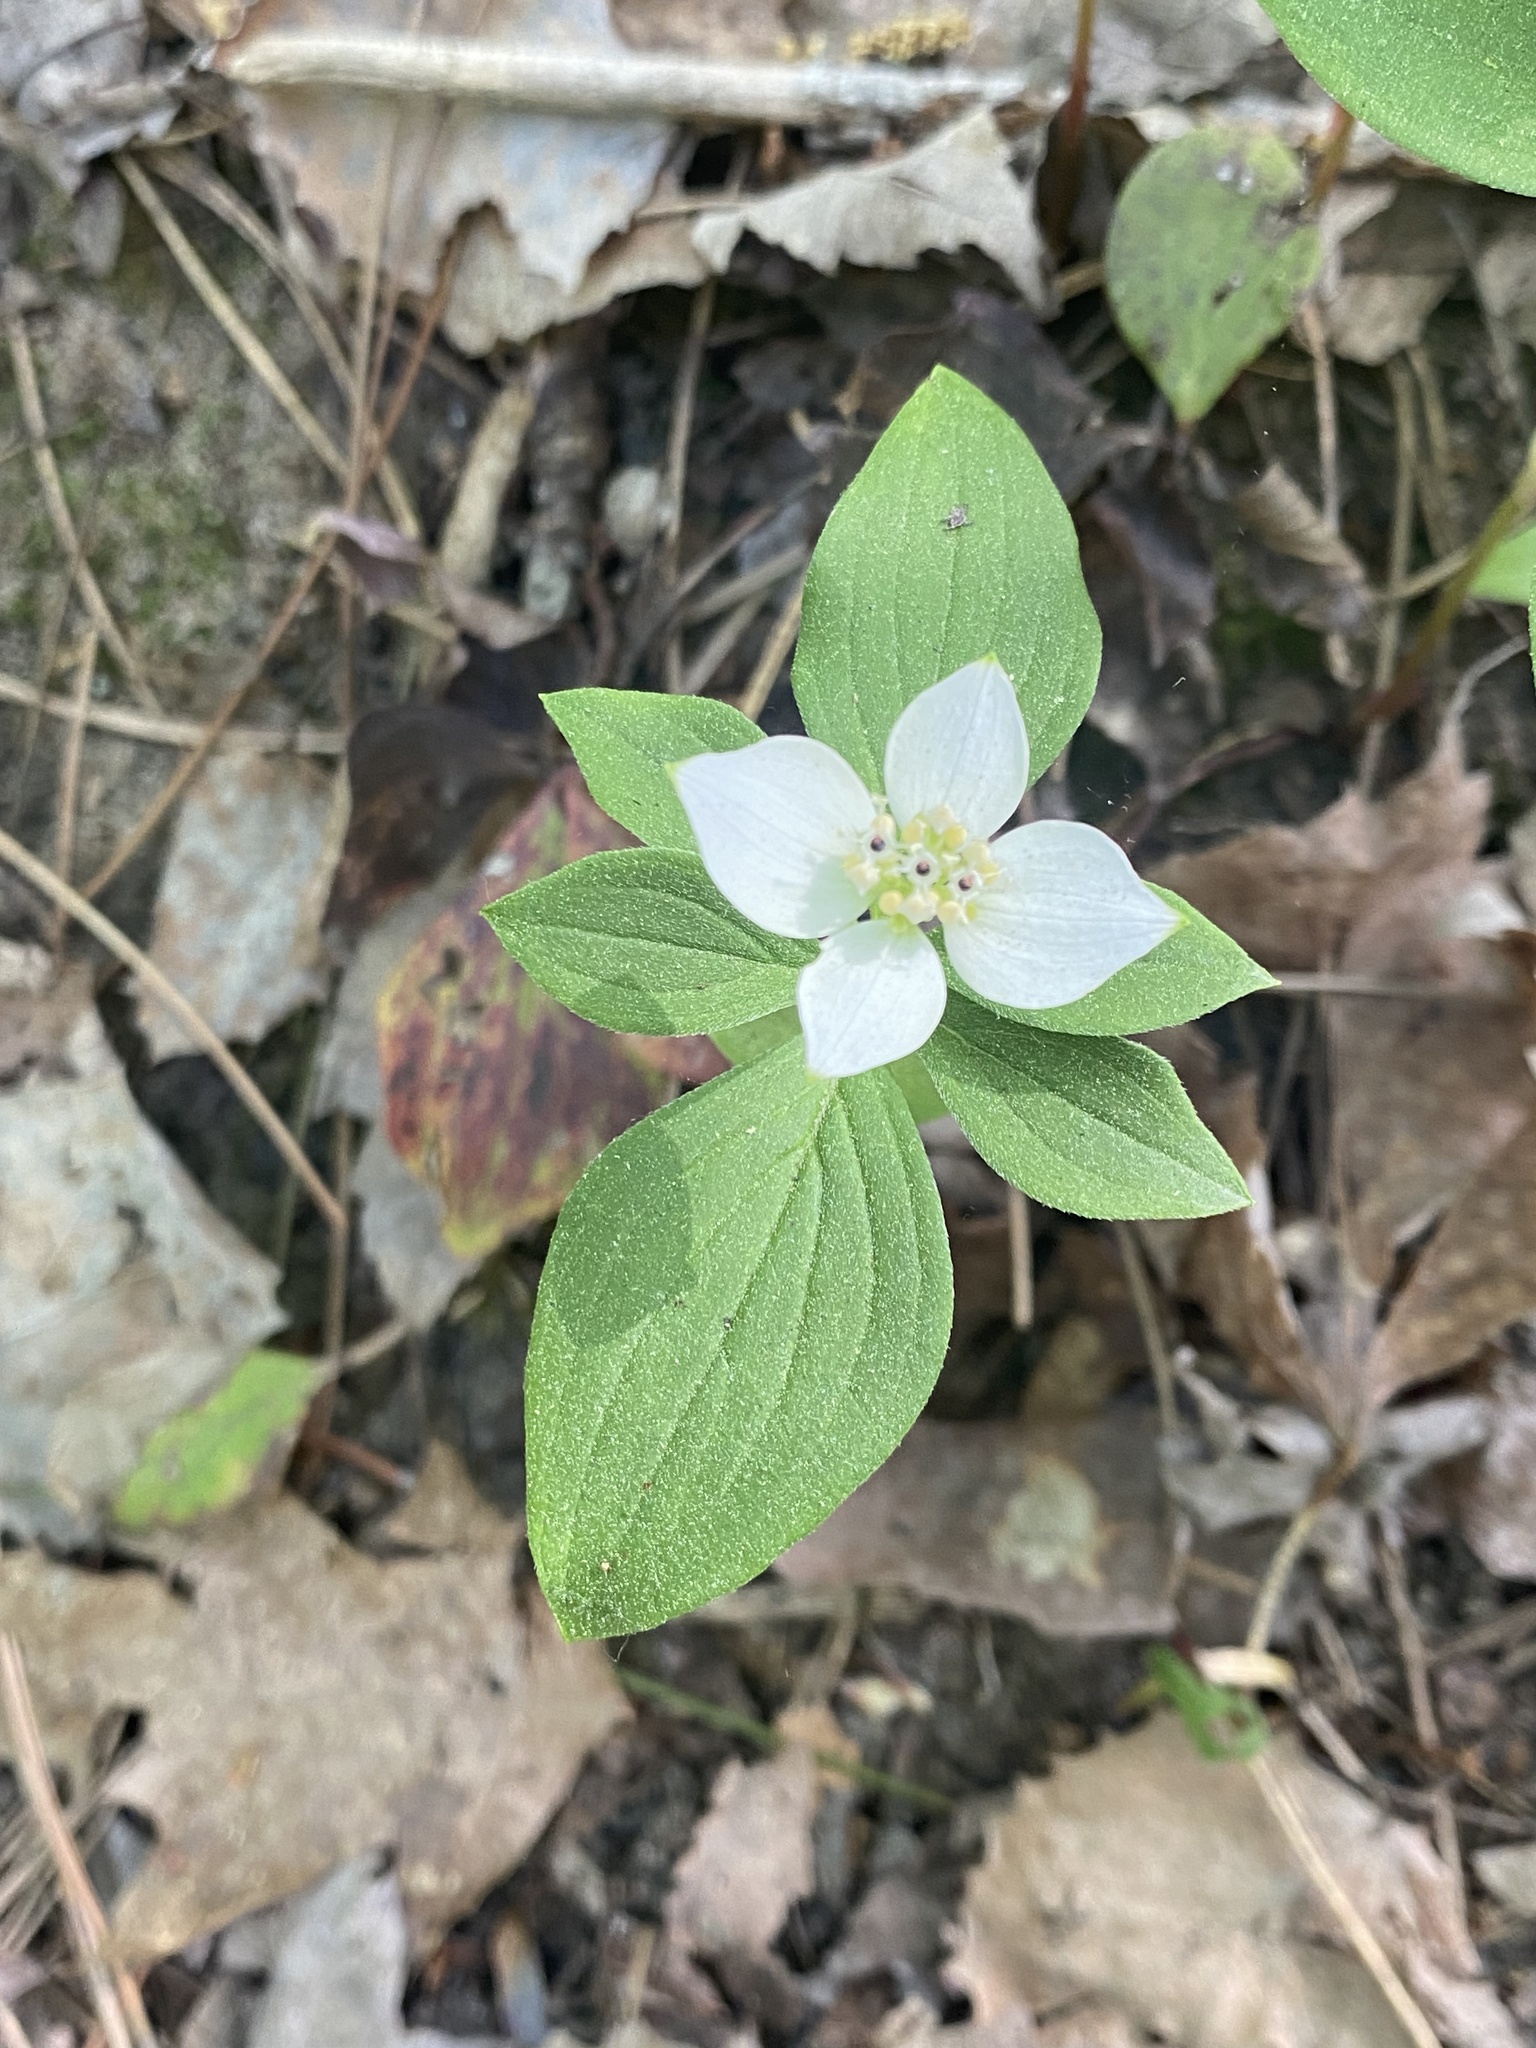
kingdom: Plantae
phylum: Tracheophyta
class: Magnoliopsida
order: Cornales
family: Cornaceae
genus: Cornus
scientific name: Cornus canadensis
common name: Creeping dogwood
